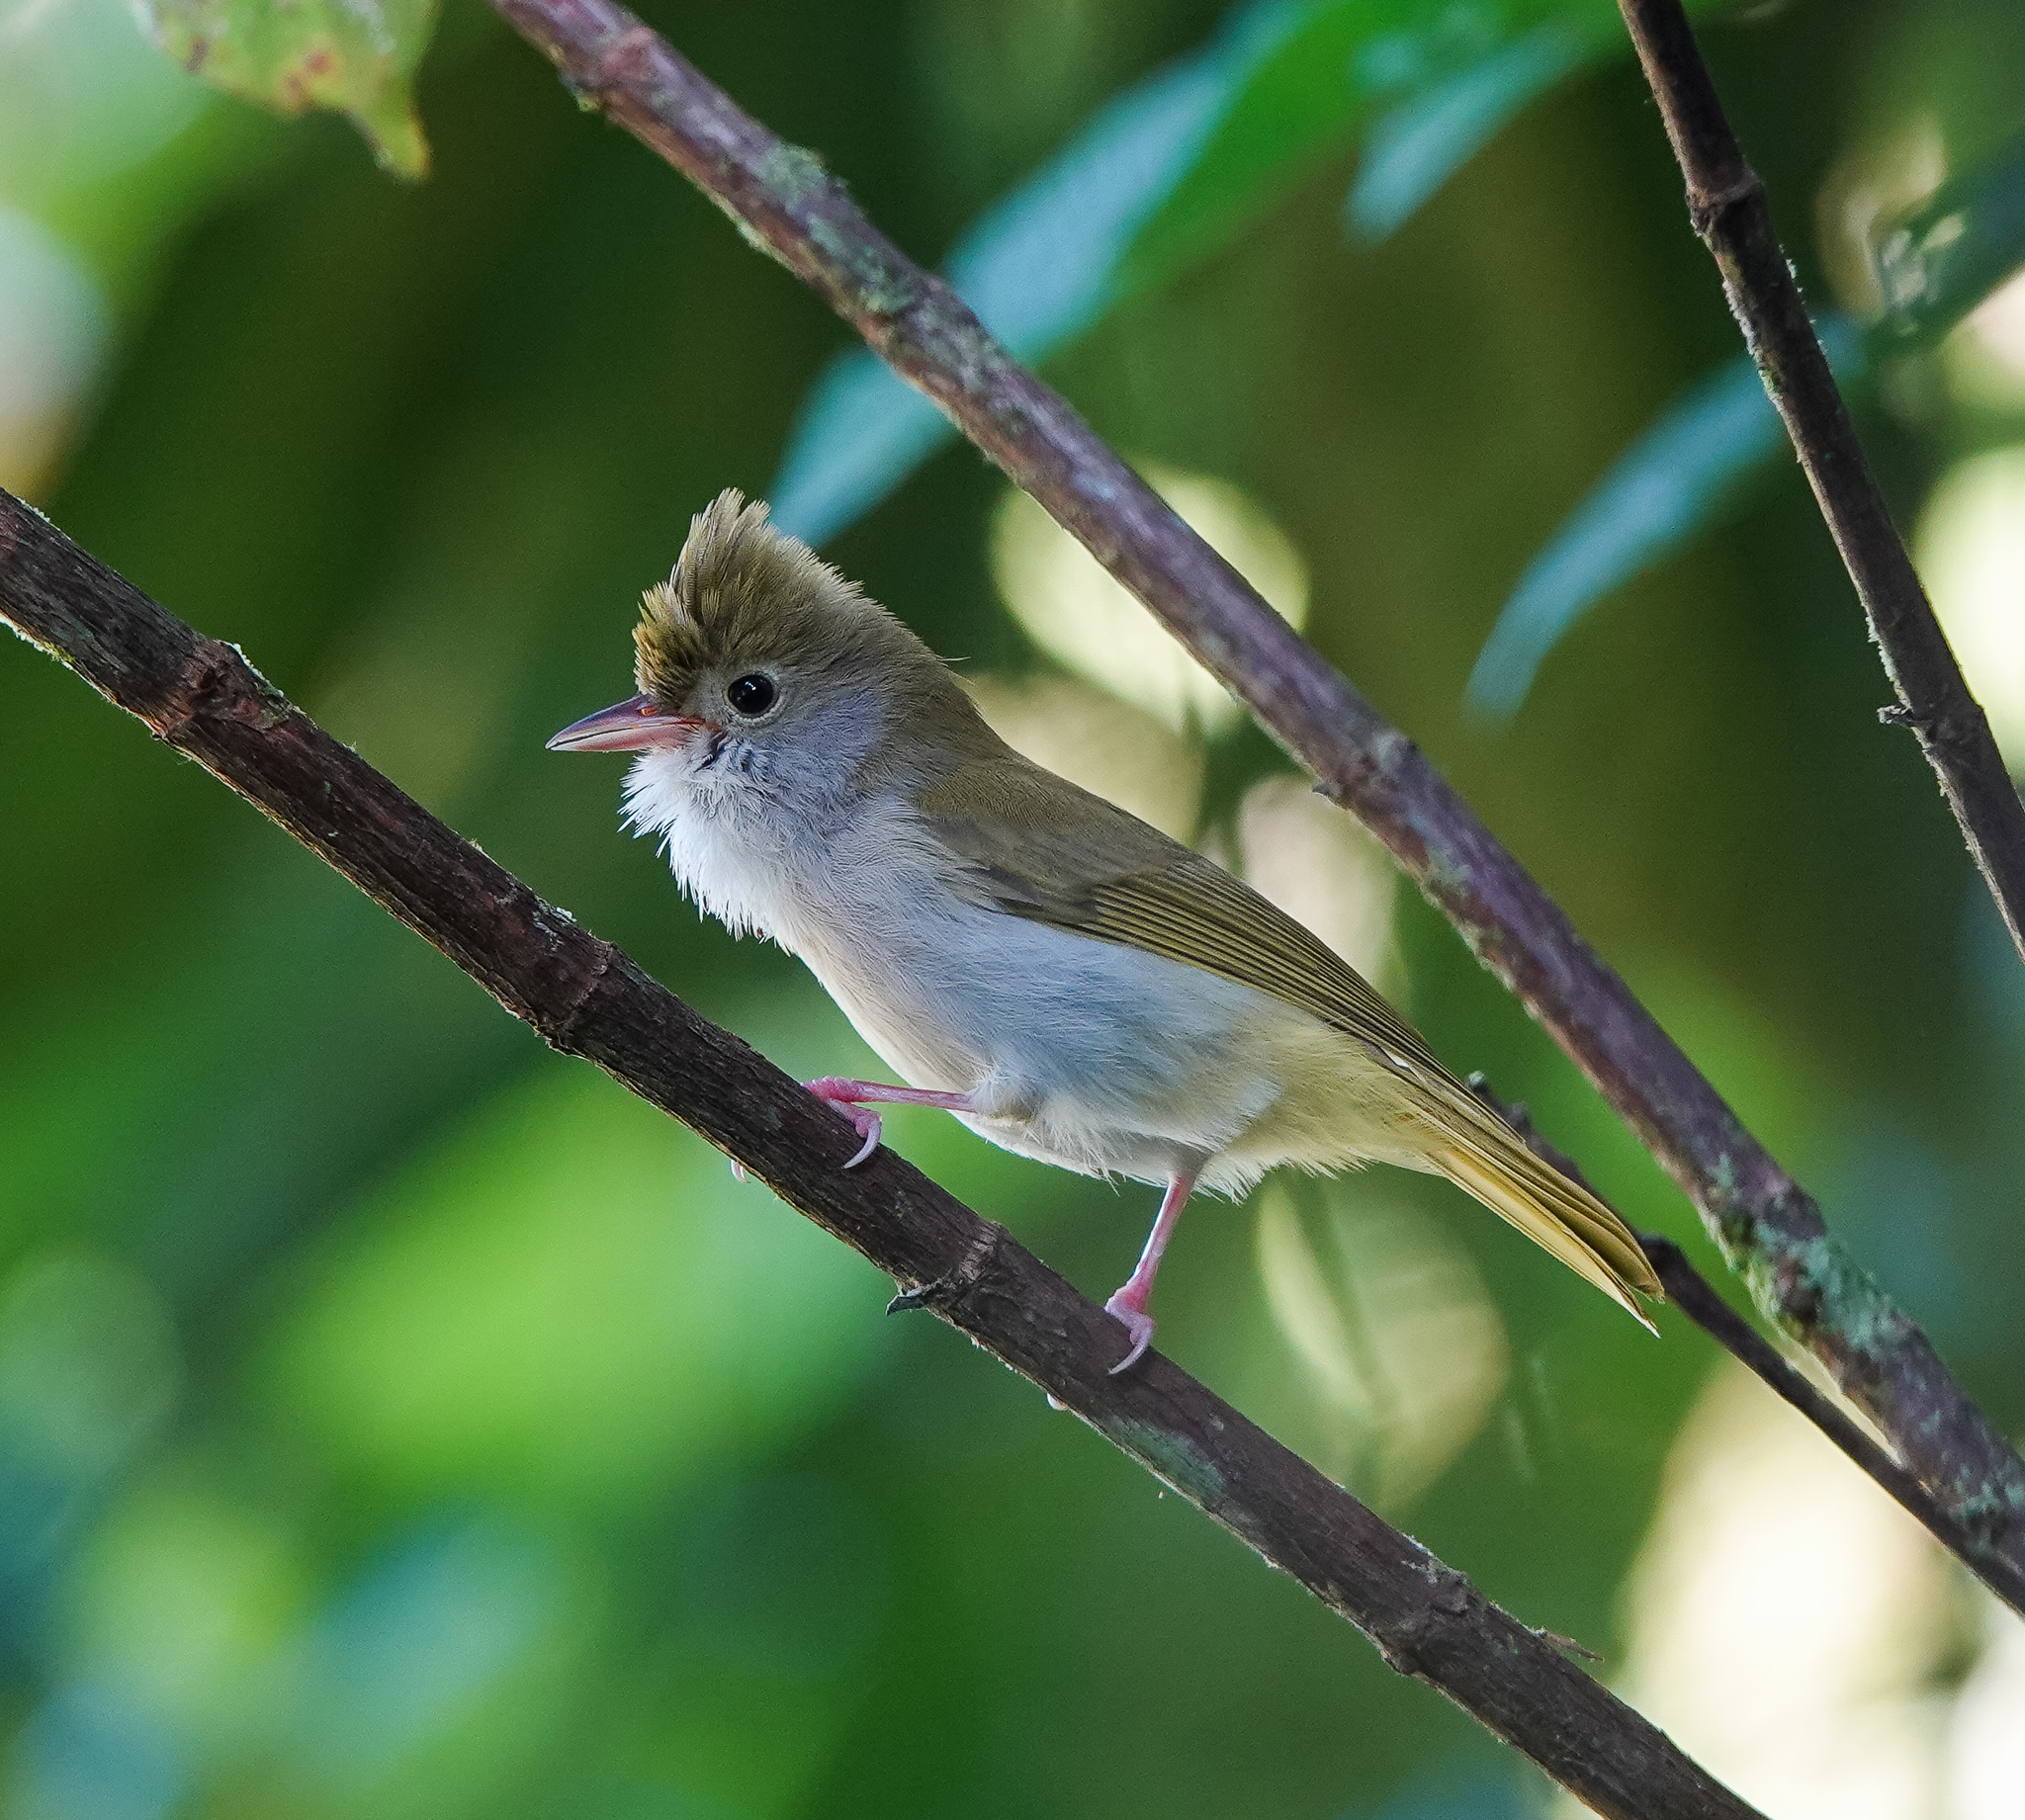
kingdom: Animalia
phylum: Chordata
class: Aves
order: Passeriformes
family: Vireonidae
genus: Erpornis
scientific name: Erpornis zantholeuca
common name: White-bellied erpornis
